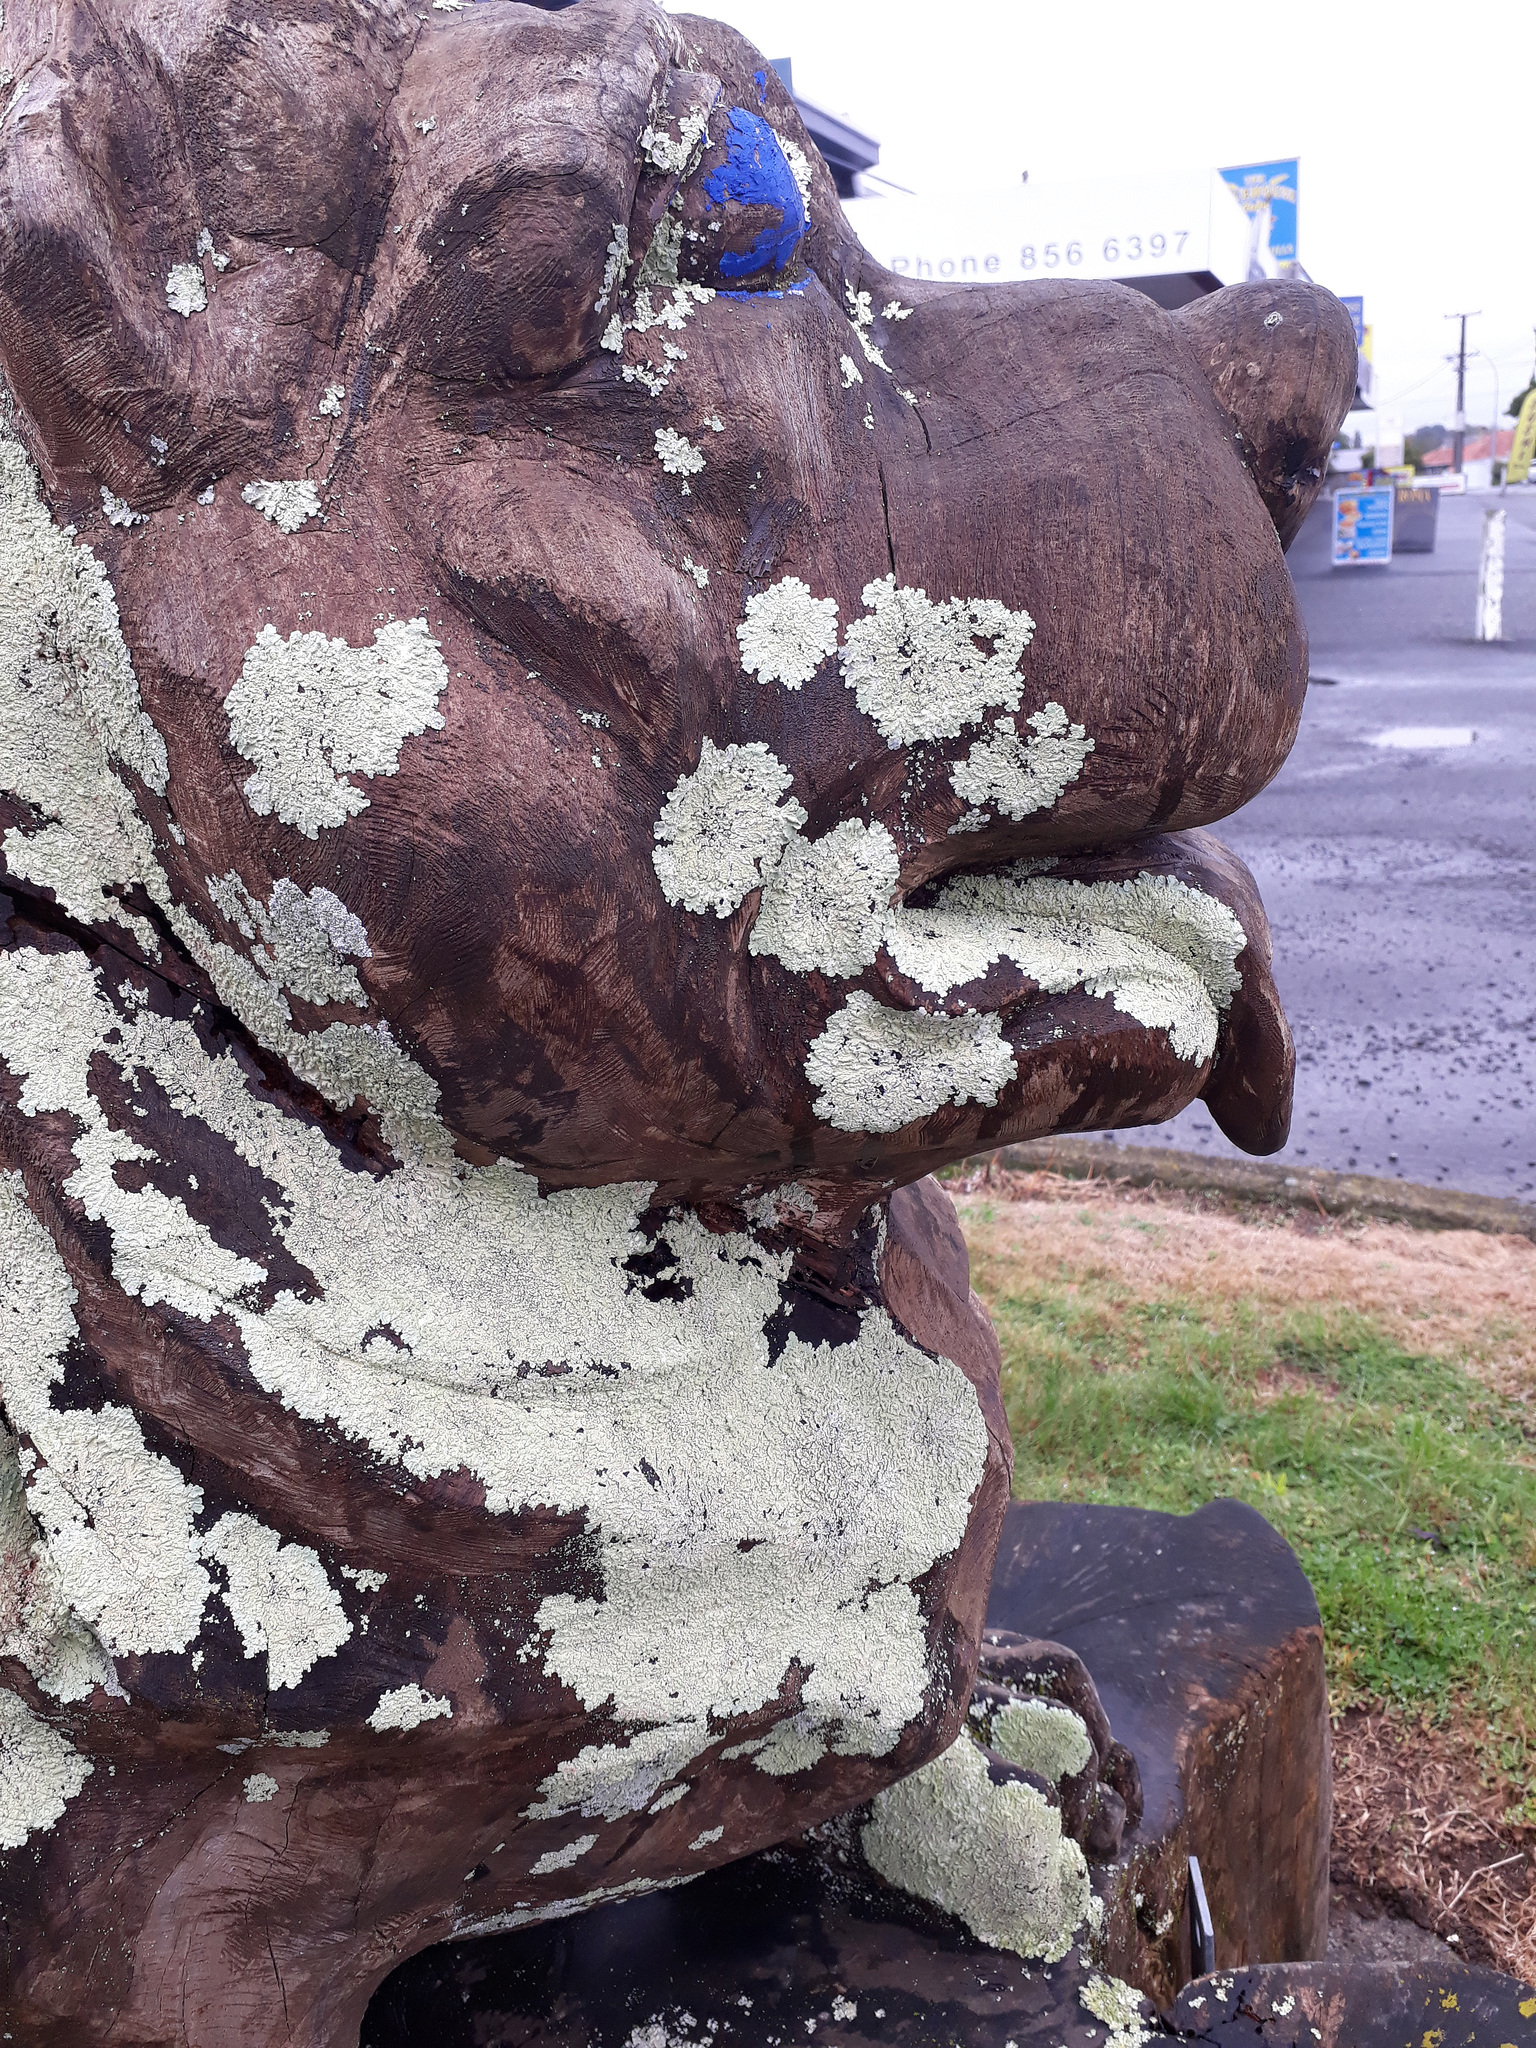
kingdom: Fungi
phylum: Ascomycota
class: Lecanoromycetes
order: Lecanorales
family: Parmeliaceae
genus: Flavoparmelia
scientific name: Flavoparmelia soredians
